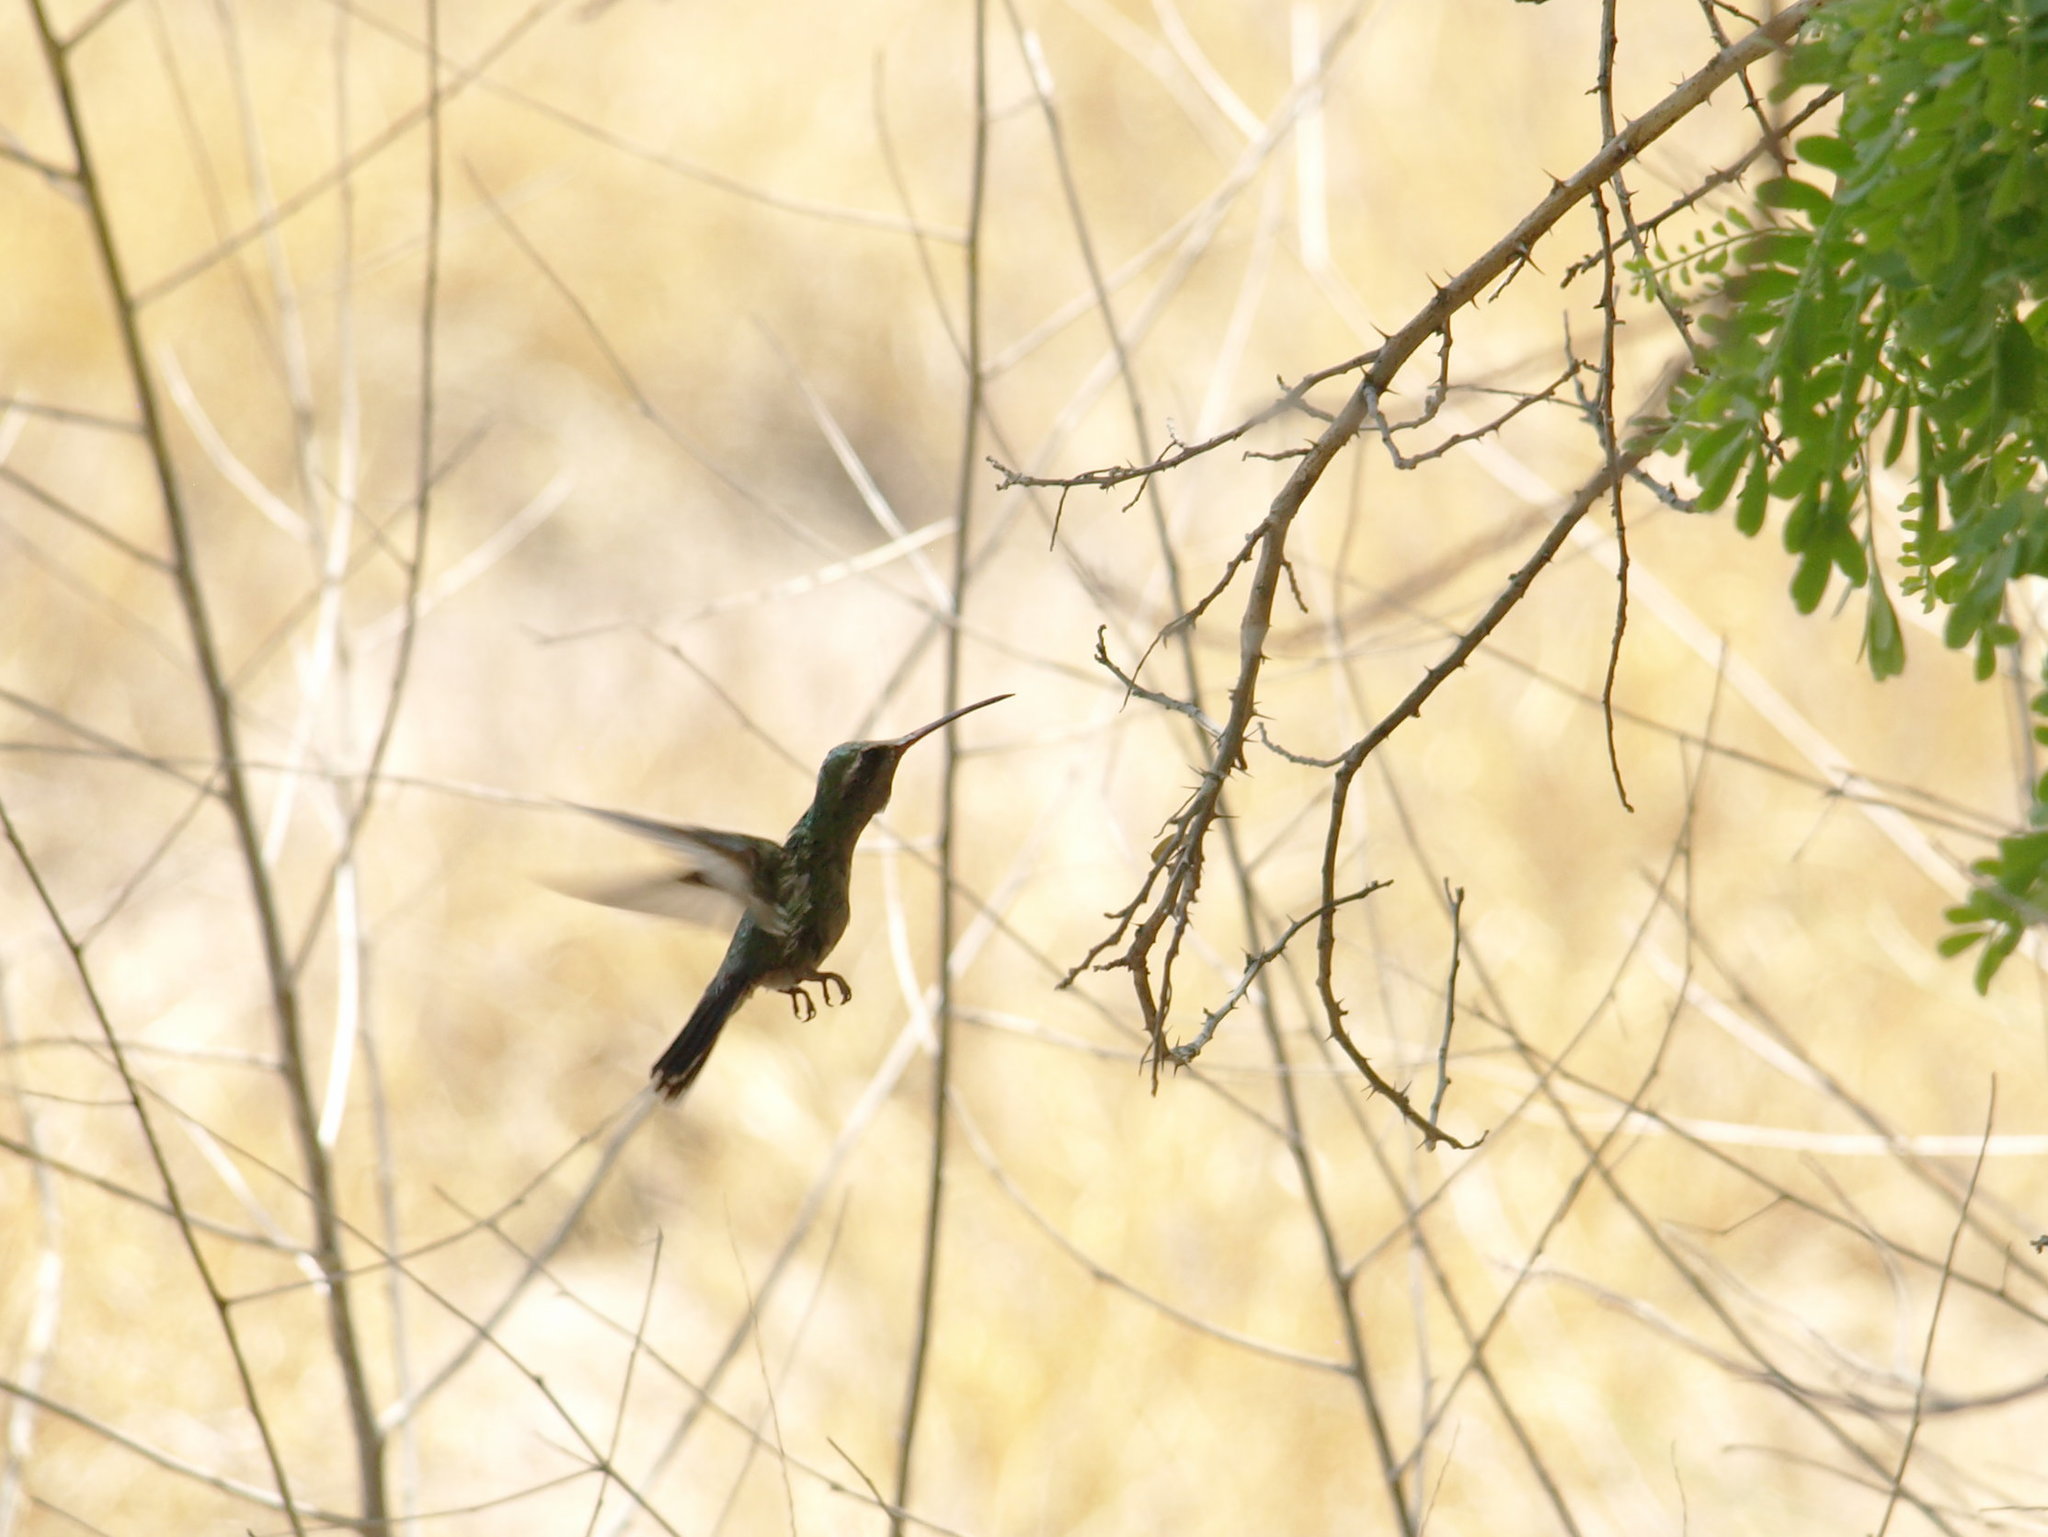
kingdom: Animalia
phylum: Chordata
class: Aves
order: Apodiformes
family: Trochilidae
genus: Cynanthus
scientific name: Cynanthus latirostris
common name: Broad-billed hummingbird
